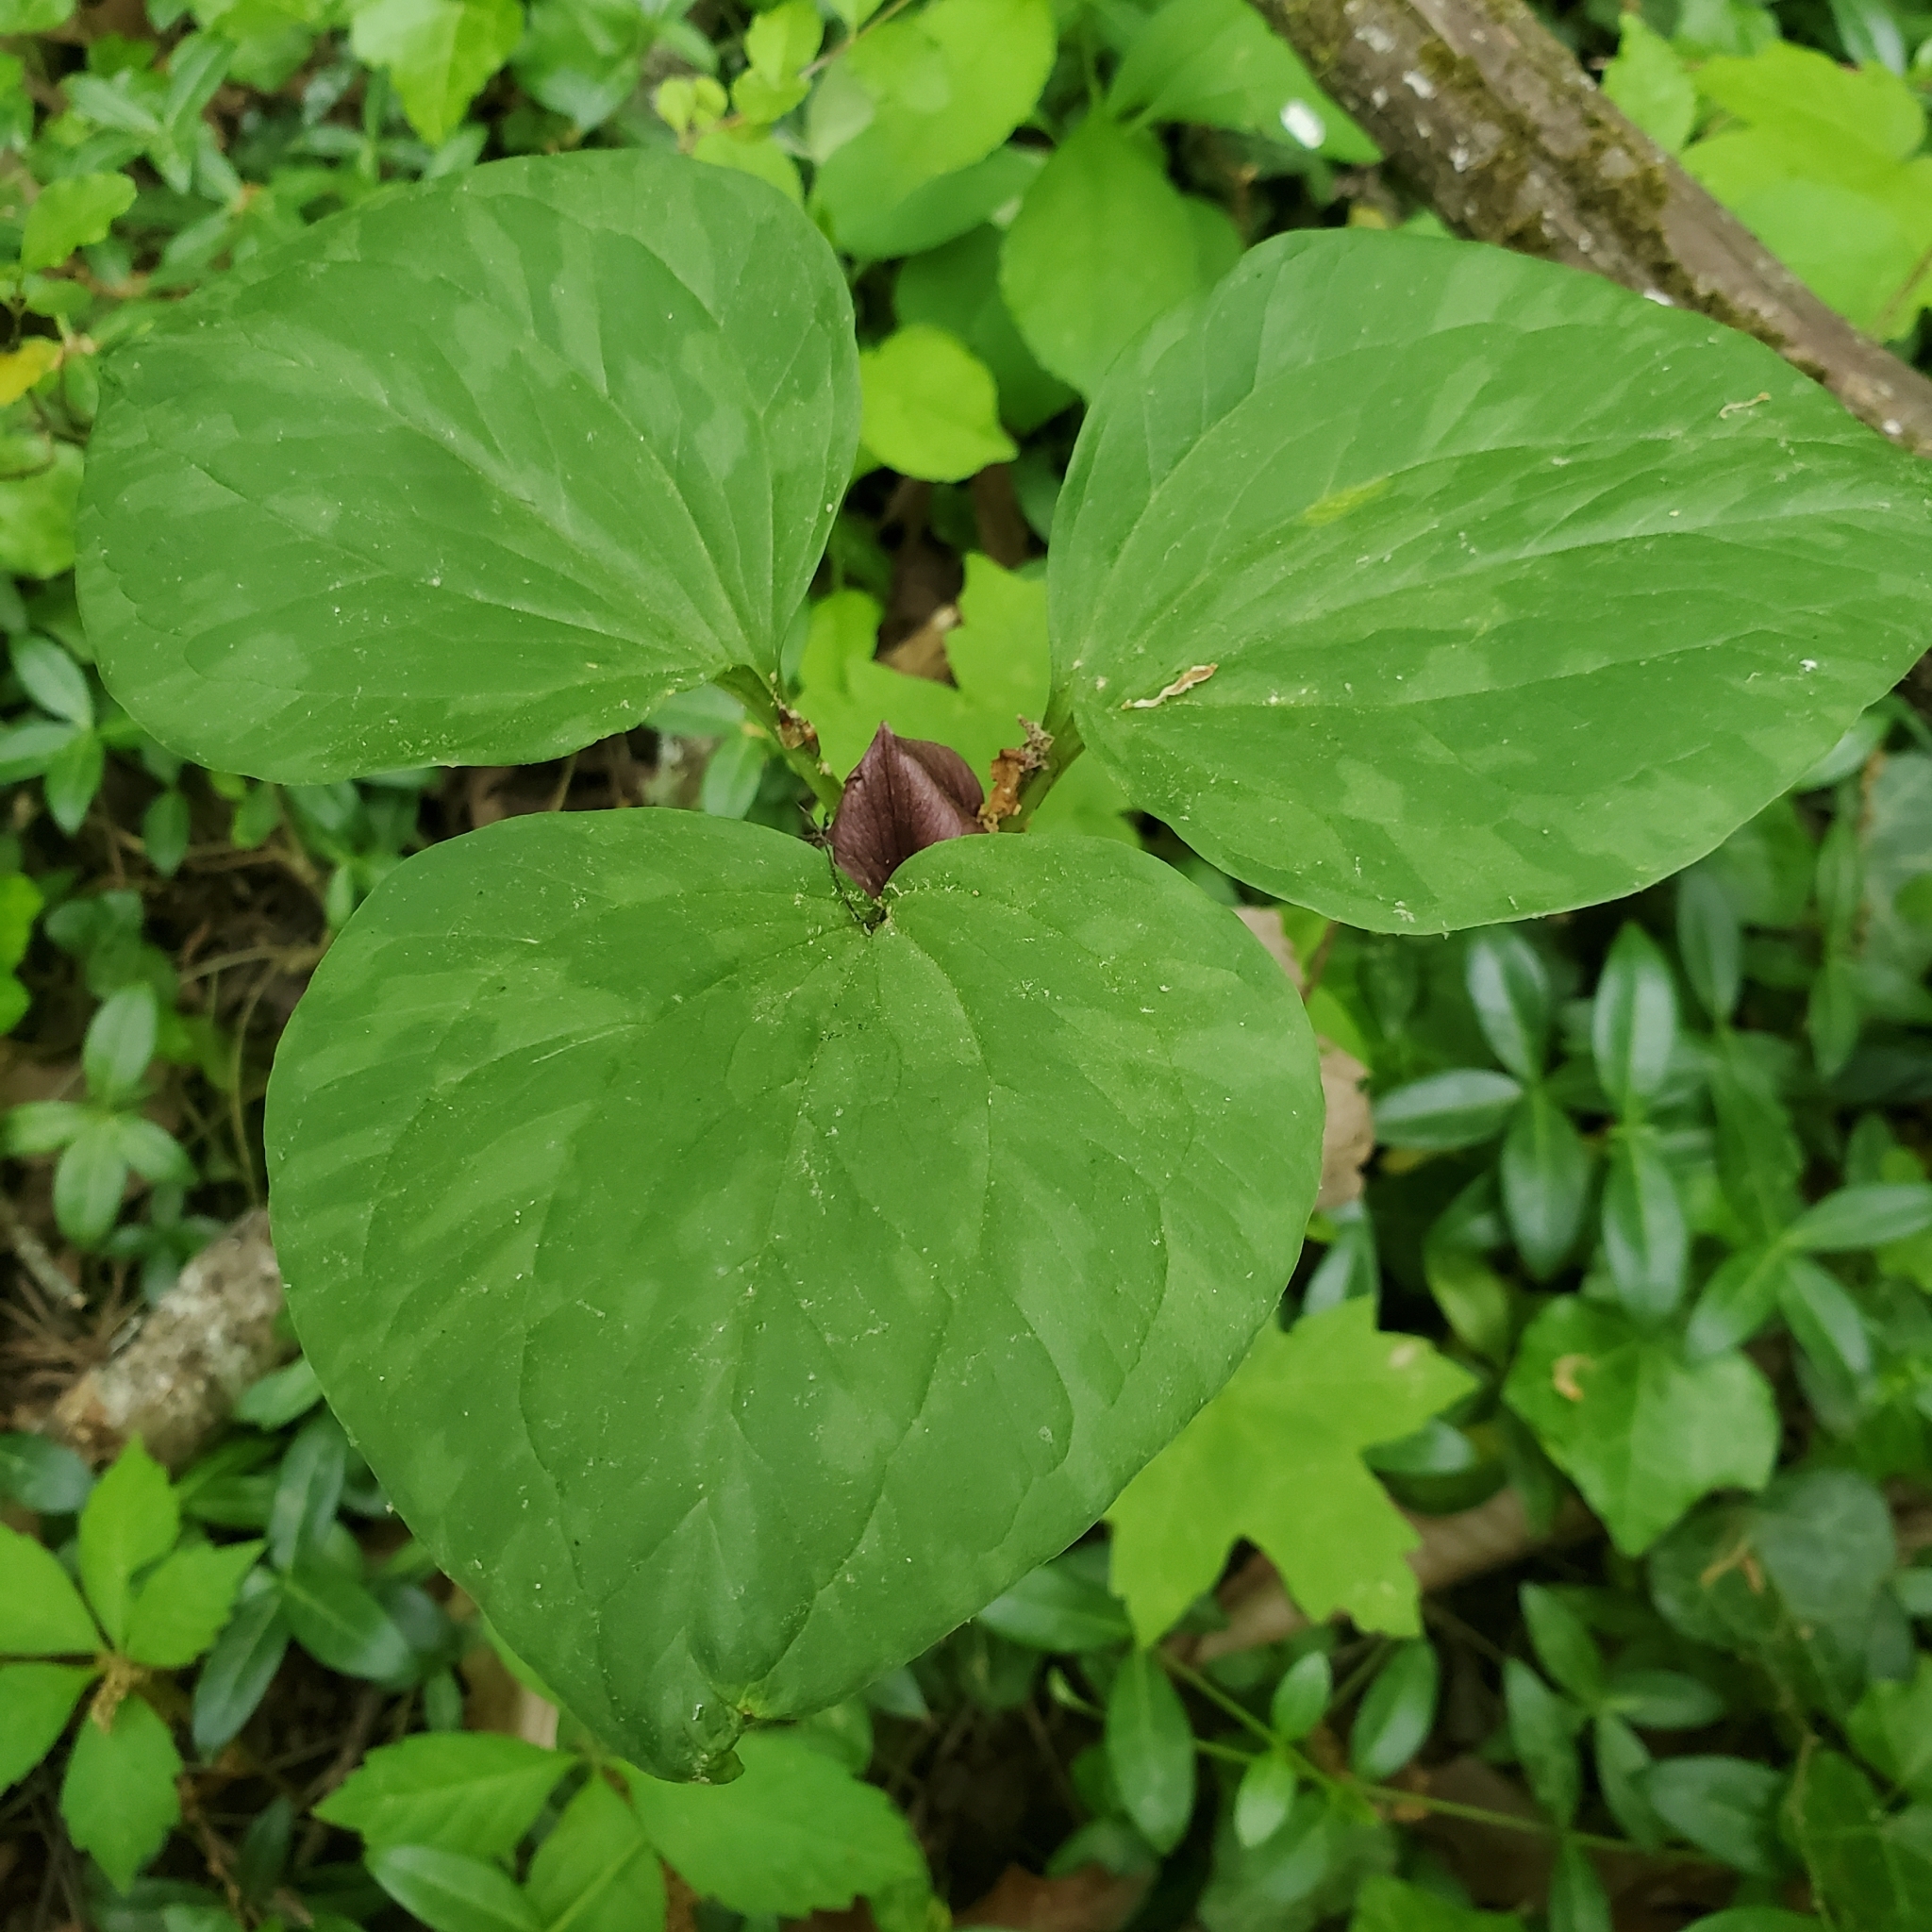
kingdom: Plantae
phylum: Tracheophyta
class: Liliopsida
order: Liliales
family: Melanthiaceae
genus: Trillium
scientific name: Trillium recurvatum
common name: Bloody butcher
